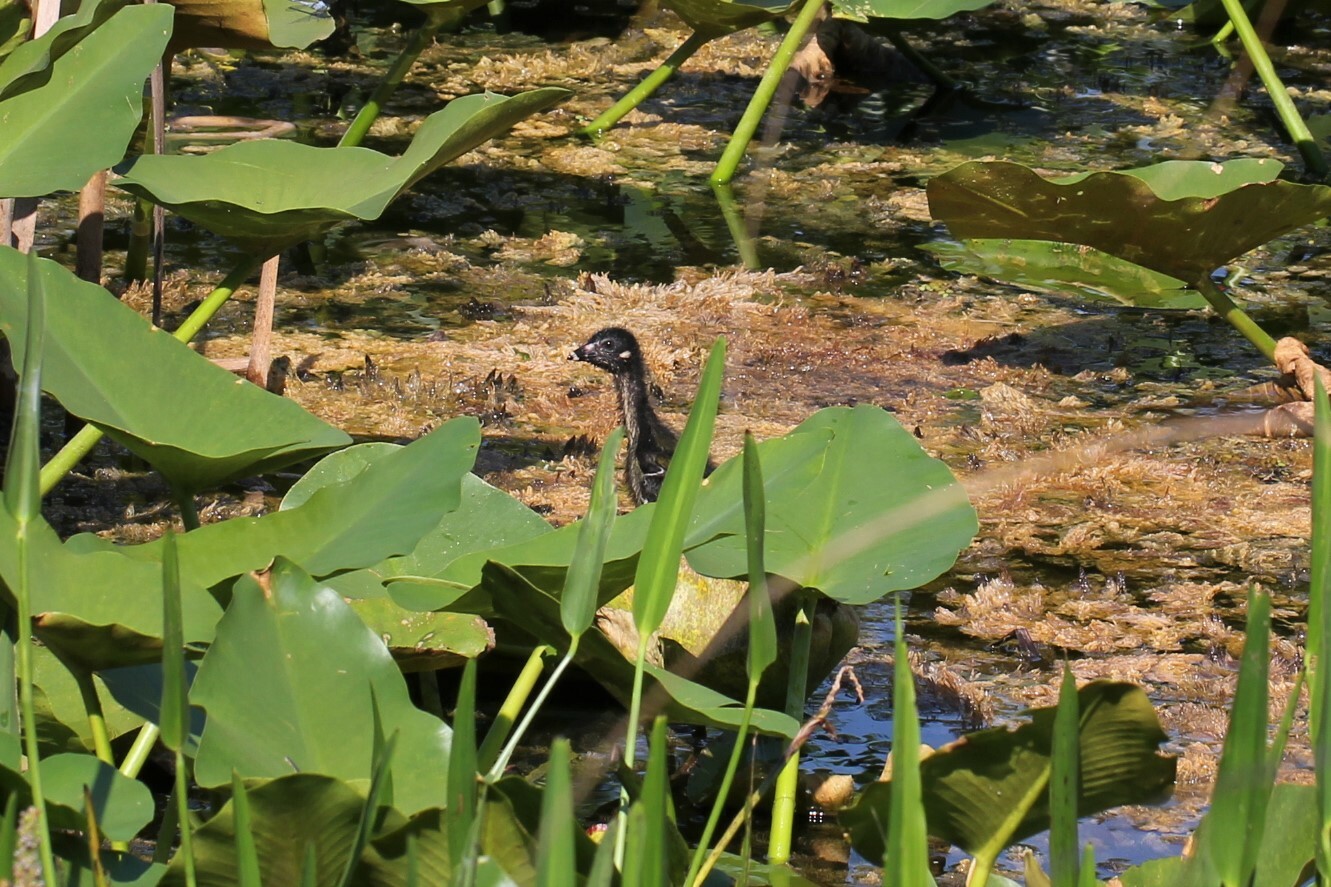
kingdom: Animalia
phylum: Chordata
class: Aves
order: Gruiformes
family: Rallidae
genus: Porphyrio
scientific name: Porphyrio martinica
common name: Purple gallinule
